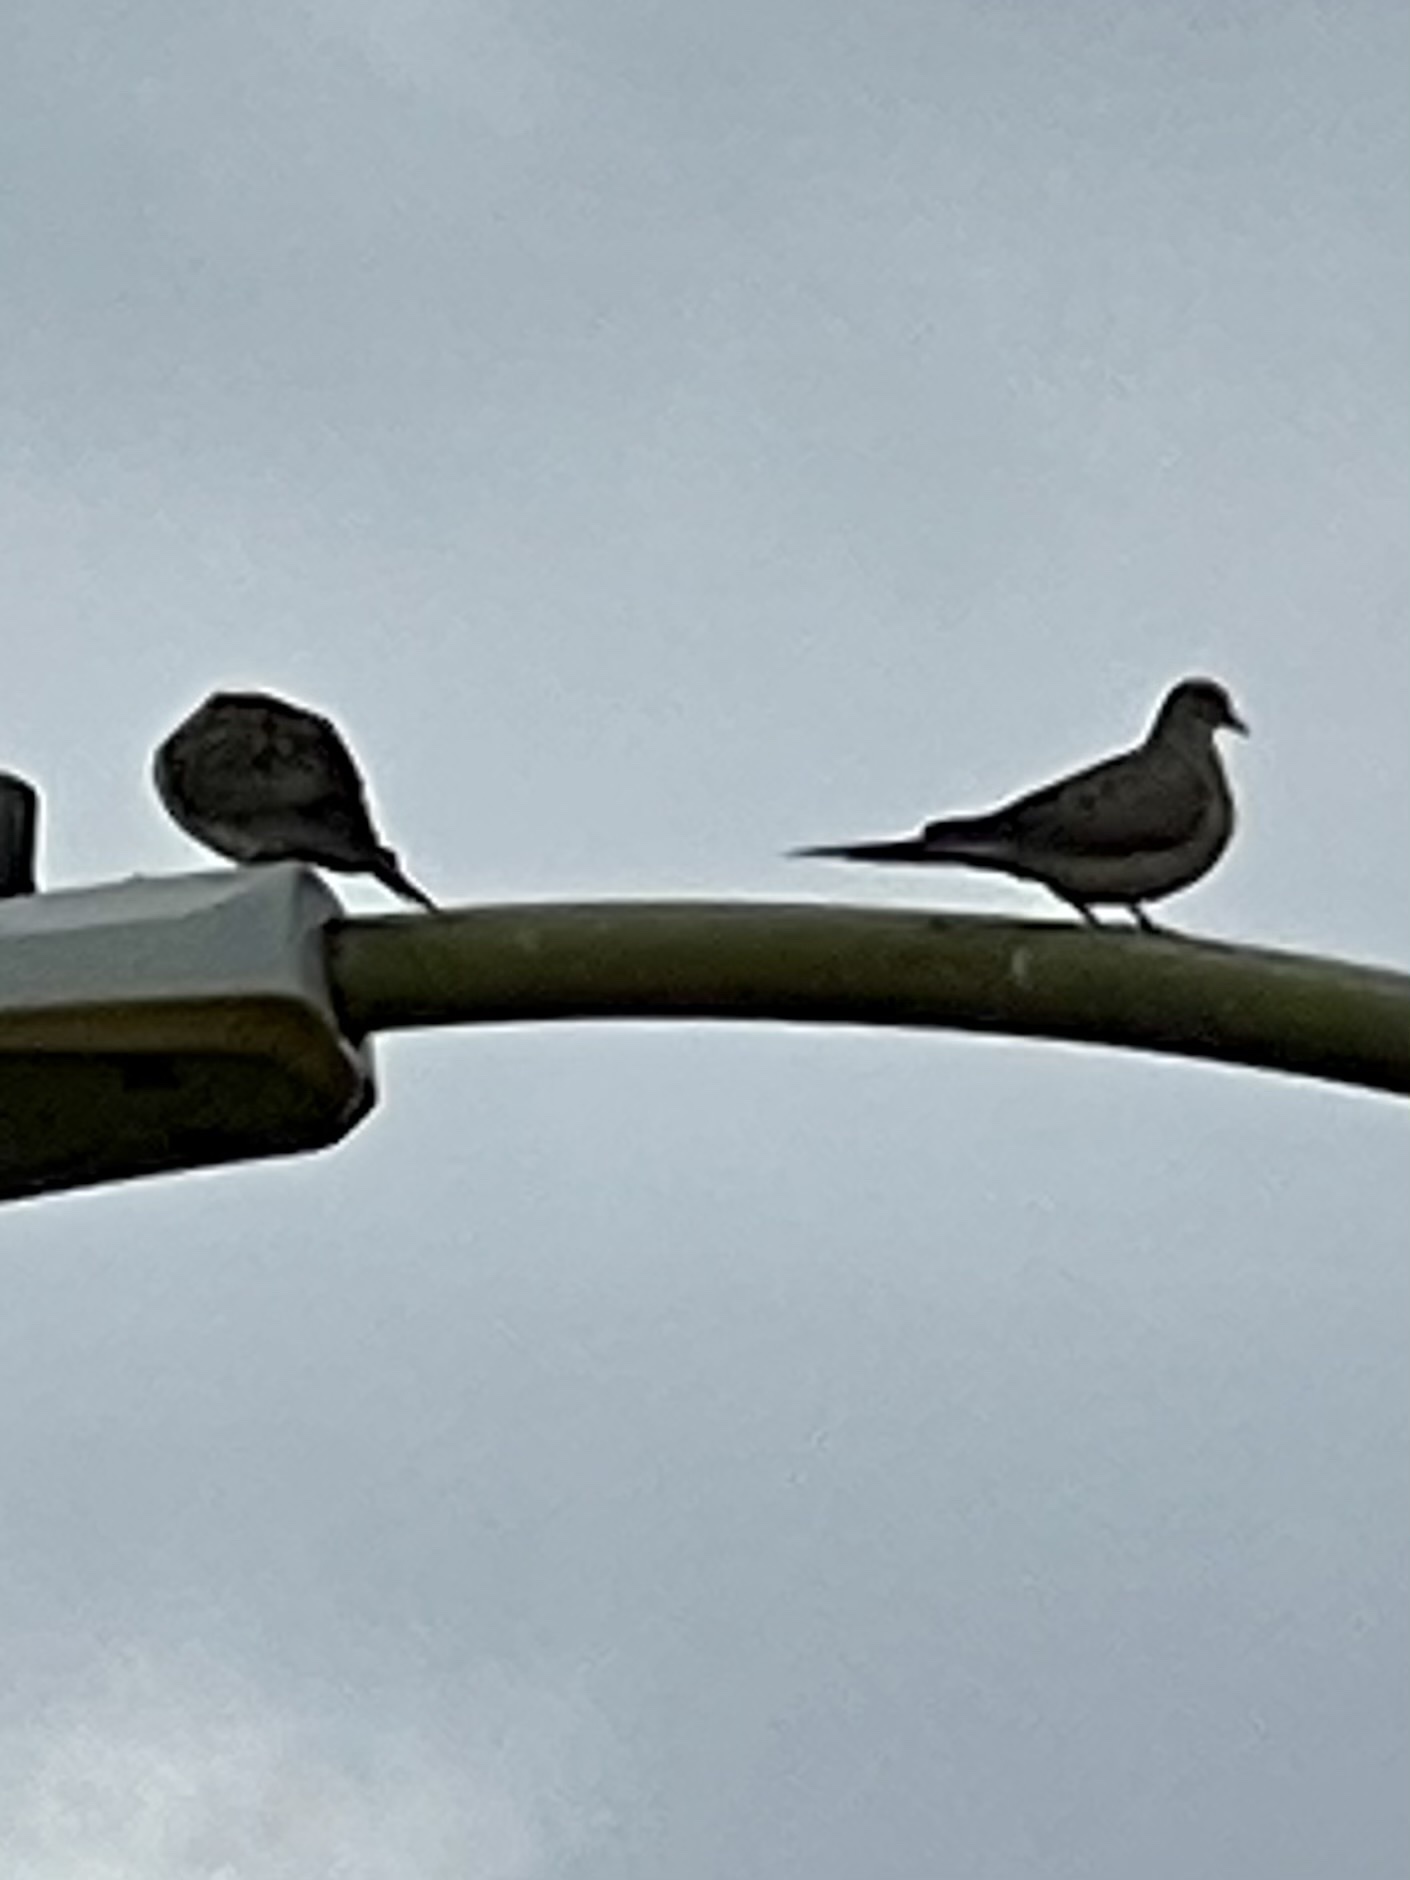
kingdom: Animalia
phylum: Chordata
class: Aves
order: Columbiformes
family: Columbidae
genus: Zenaida
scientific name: Zenaida macroura
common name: Mourning dove
